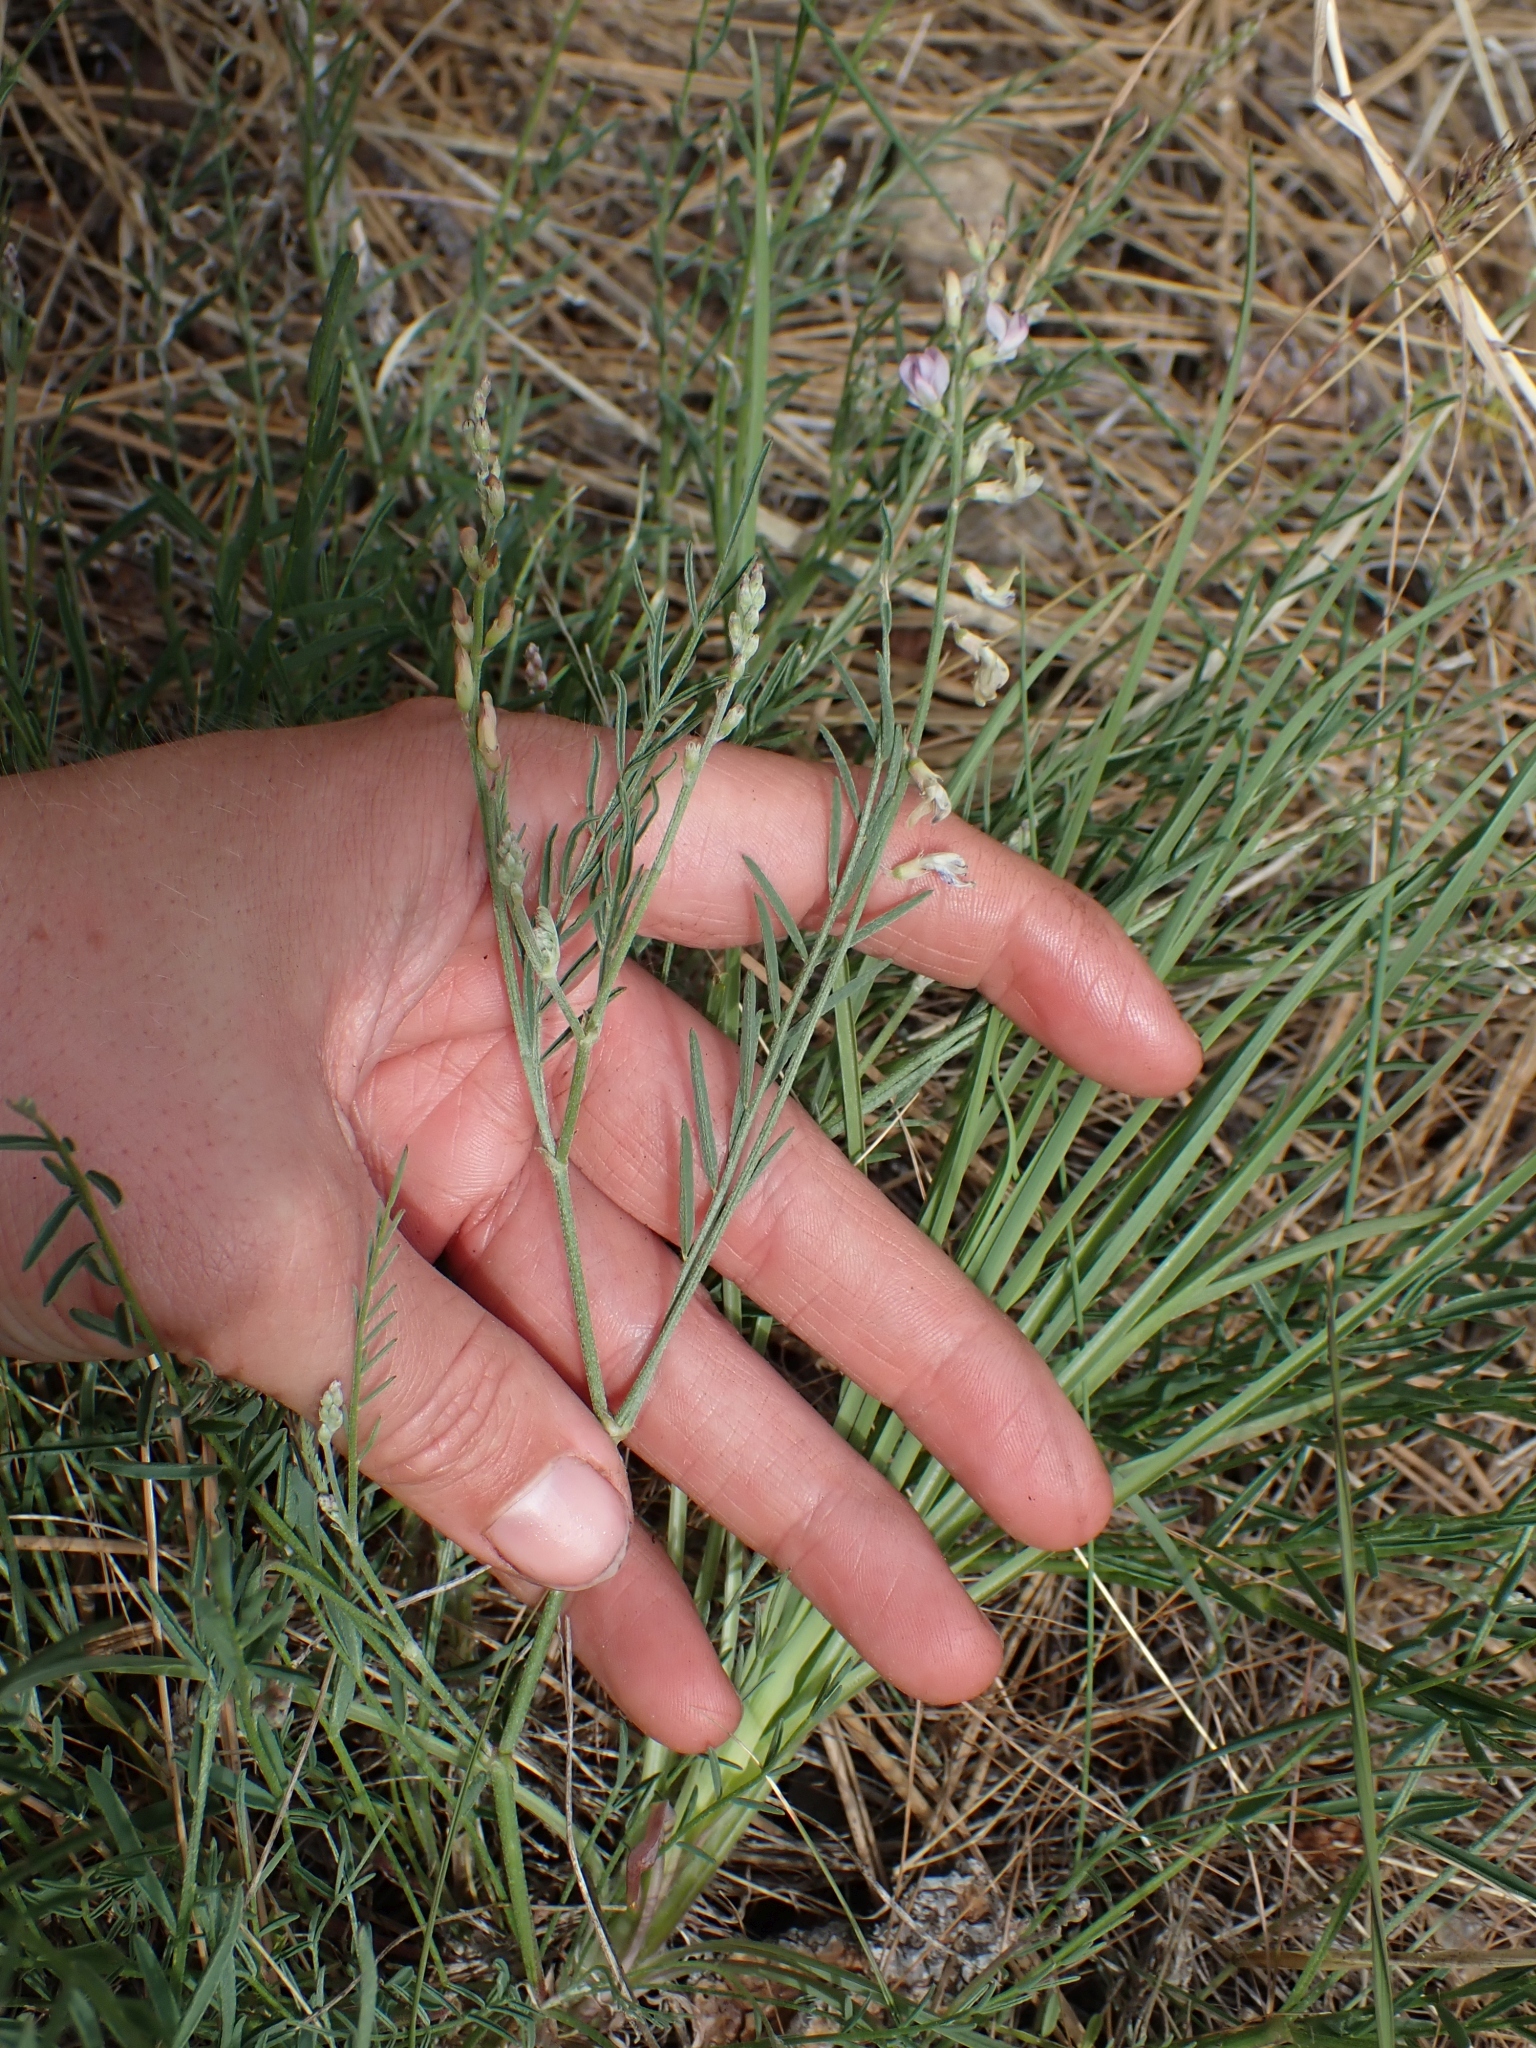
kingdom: Plantae
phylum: Tracheophyta
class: Magnoliopsida
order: Fabales
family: Fabaceae
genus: Astragalus
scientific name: Astragalus miser
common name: Timber milkvetch
